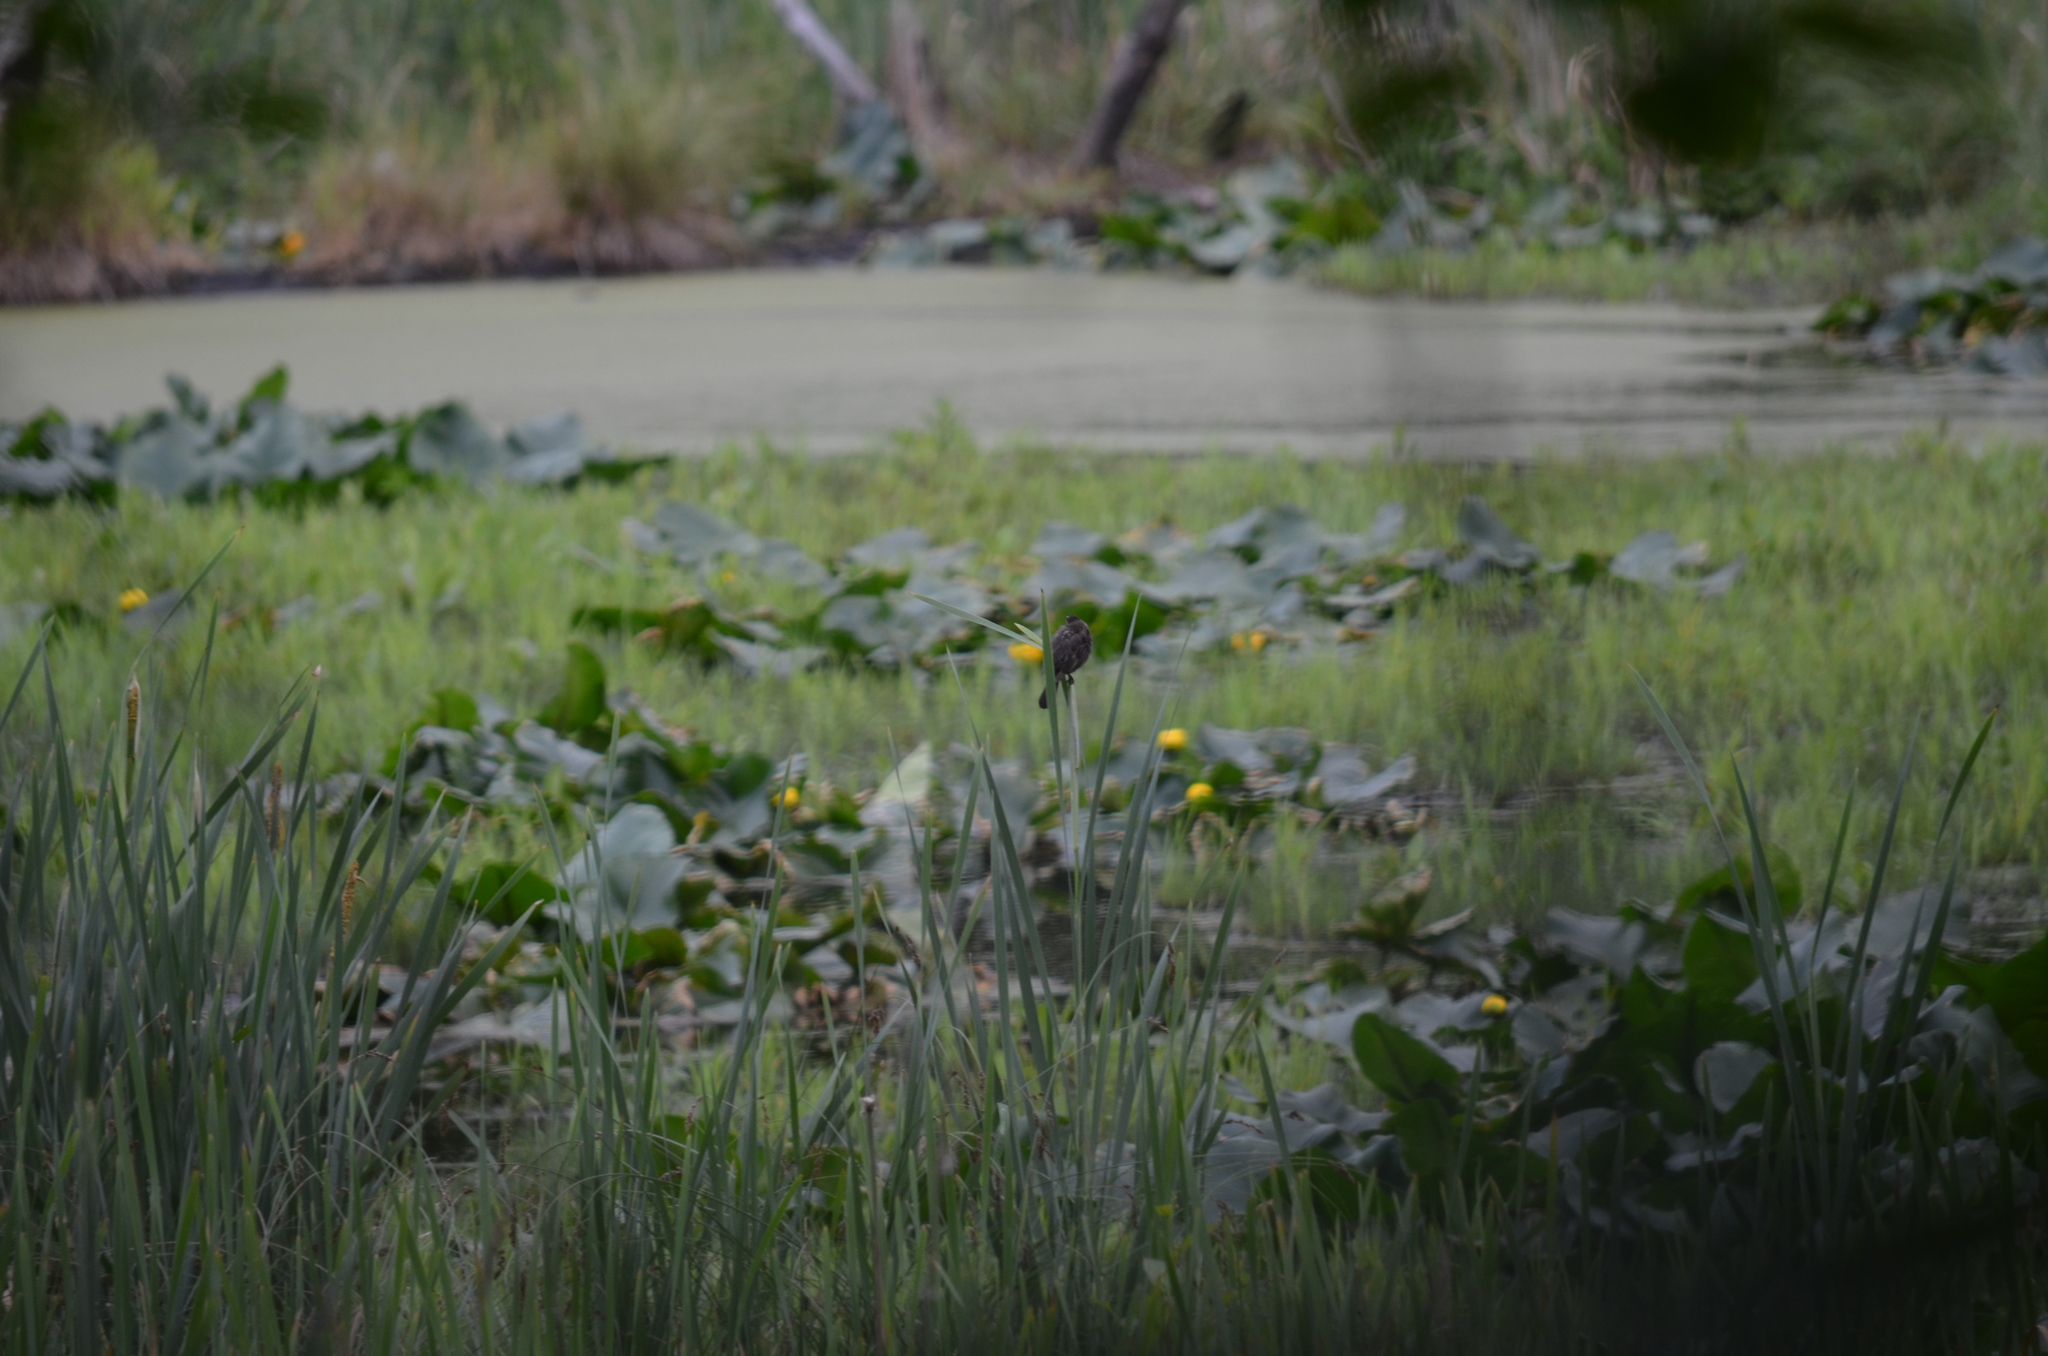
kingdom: Animalia
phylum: Chordata
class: Aves
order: Passeriformes
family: Icteridae
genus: Agelaius
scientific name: Agelaius phoeniceus
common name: Red-winged blackbird
